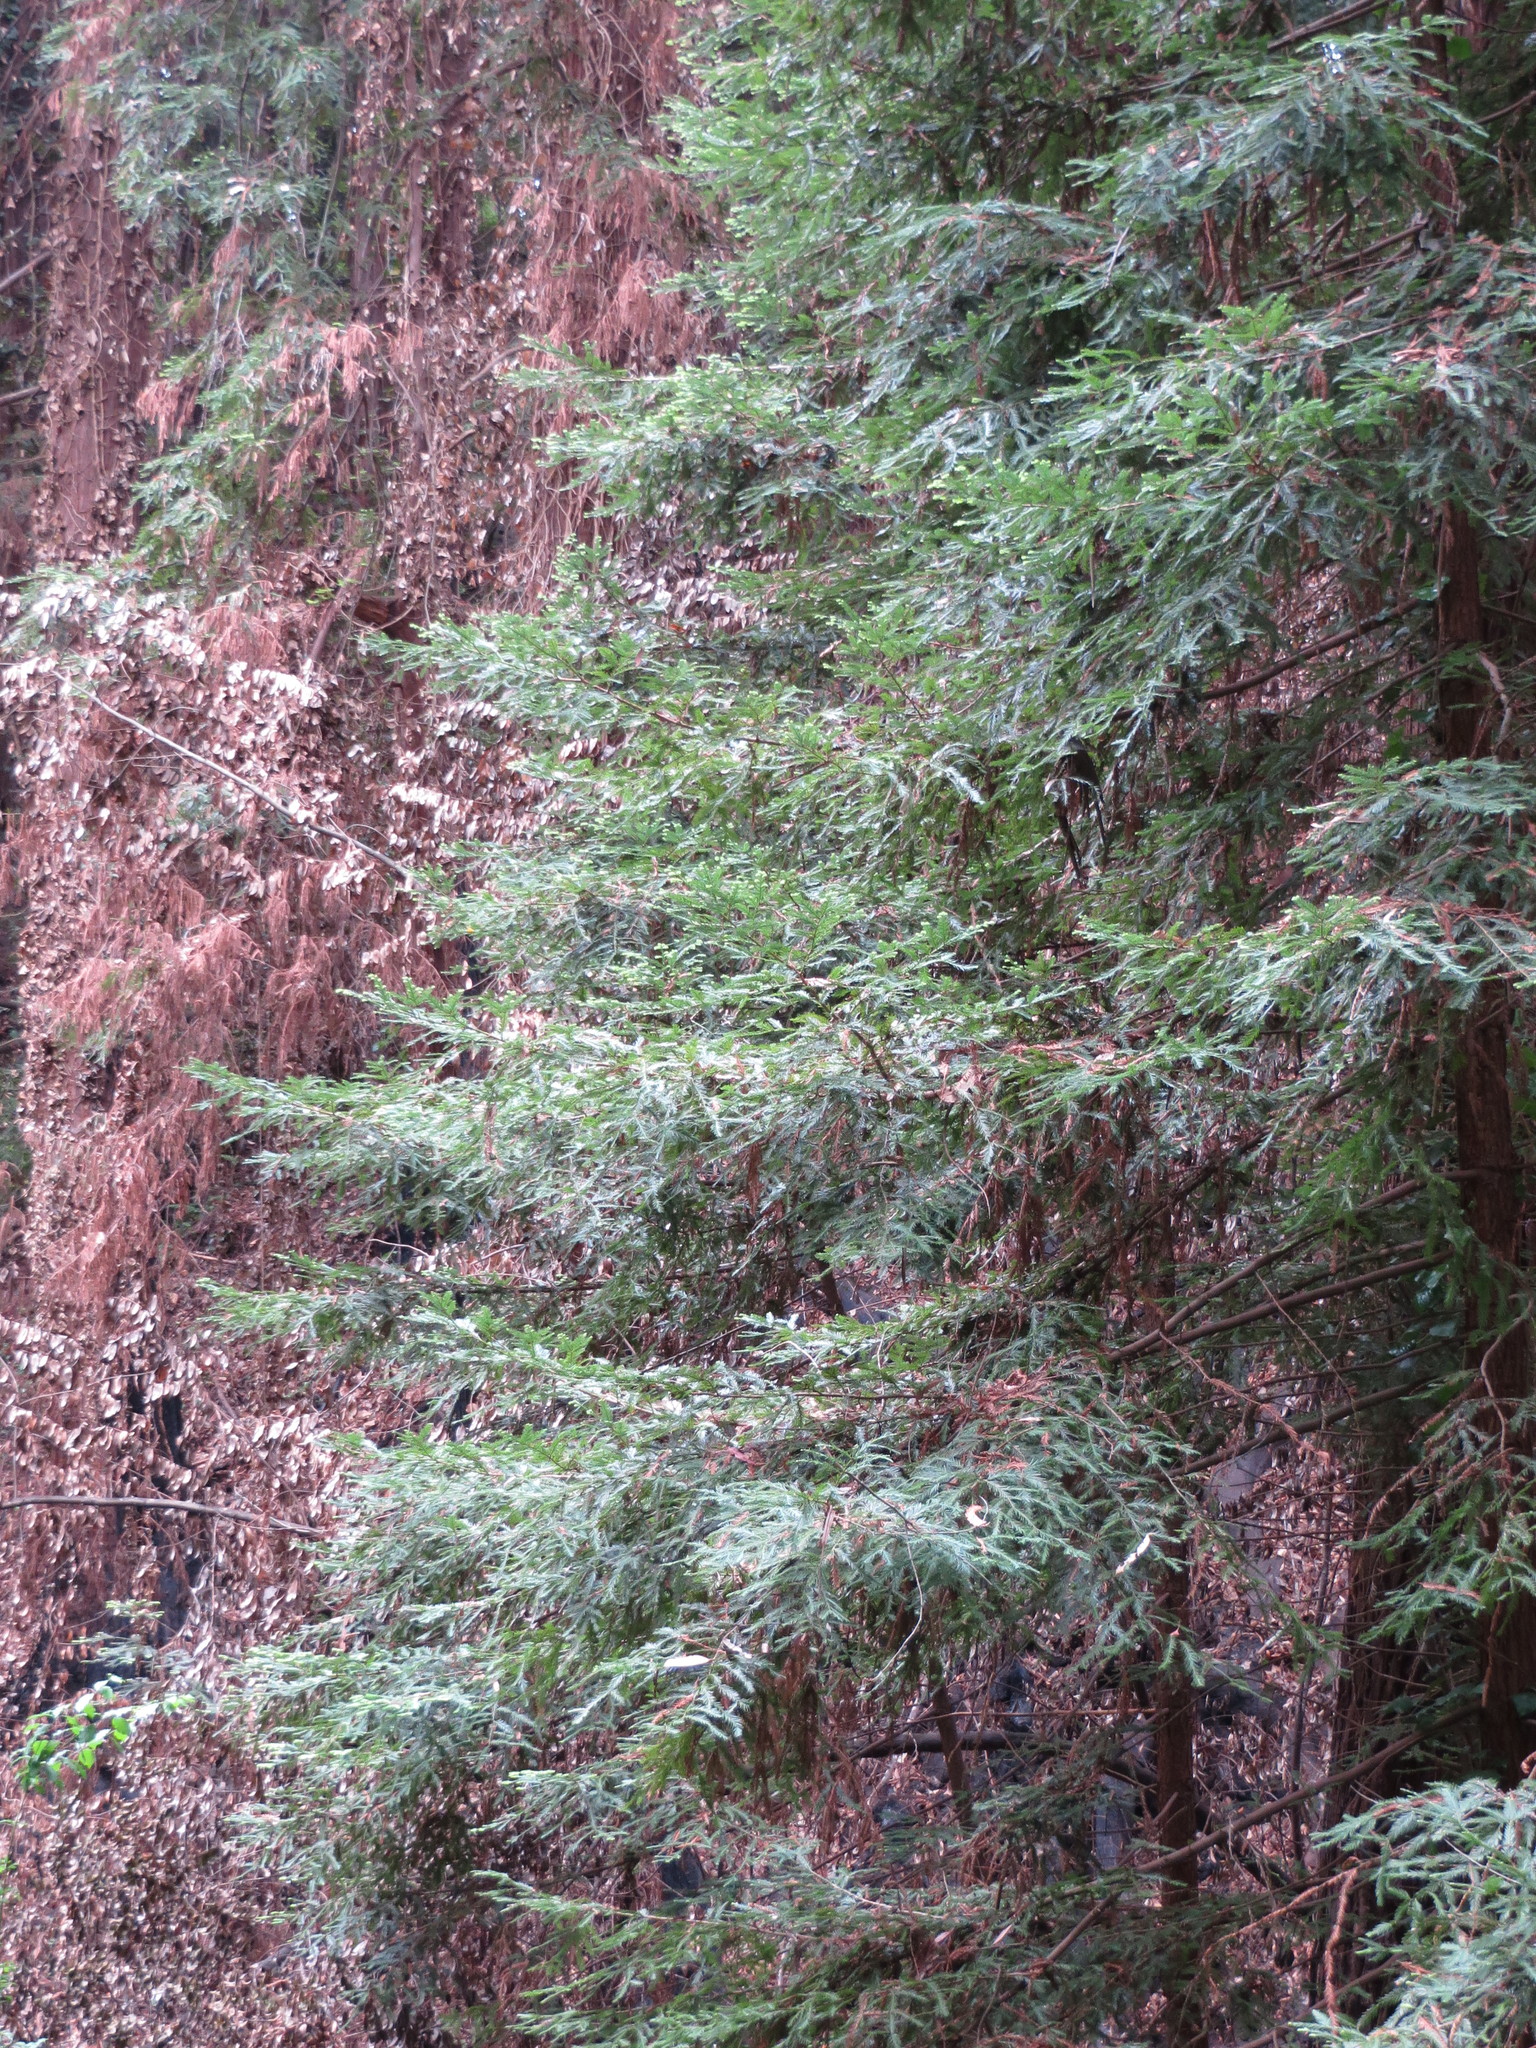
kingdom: Plantae
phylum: Tracheophyta
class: Pinopsida
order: Pinales
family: Cupressaceae
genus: Sequoia
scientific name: Sequoia sempervirens
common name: Coast redwood
